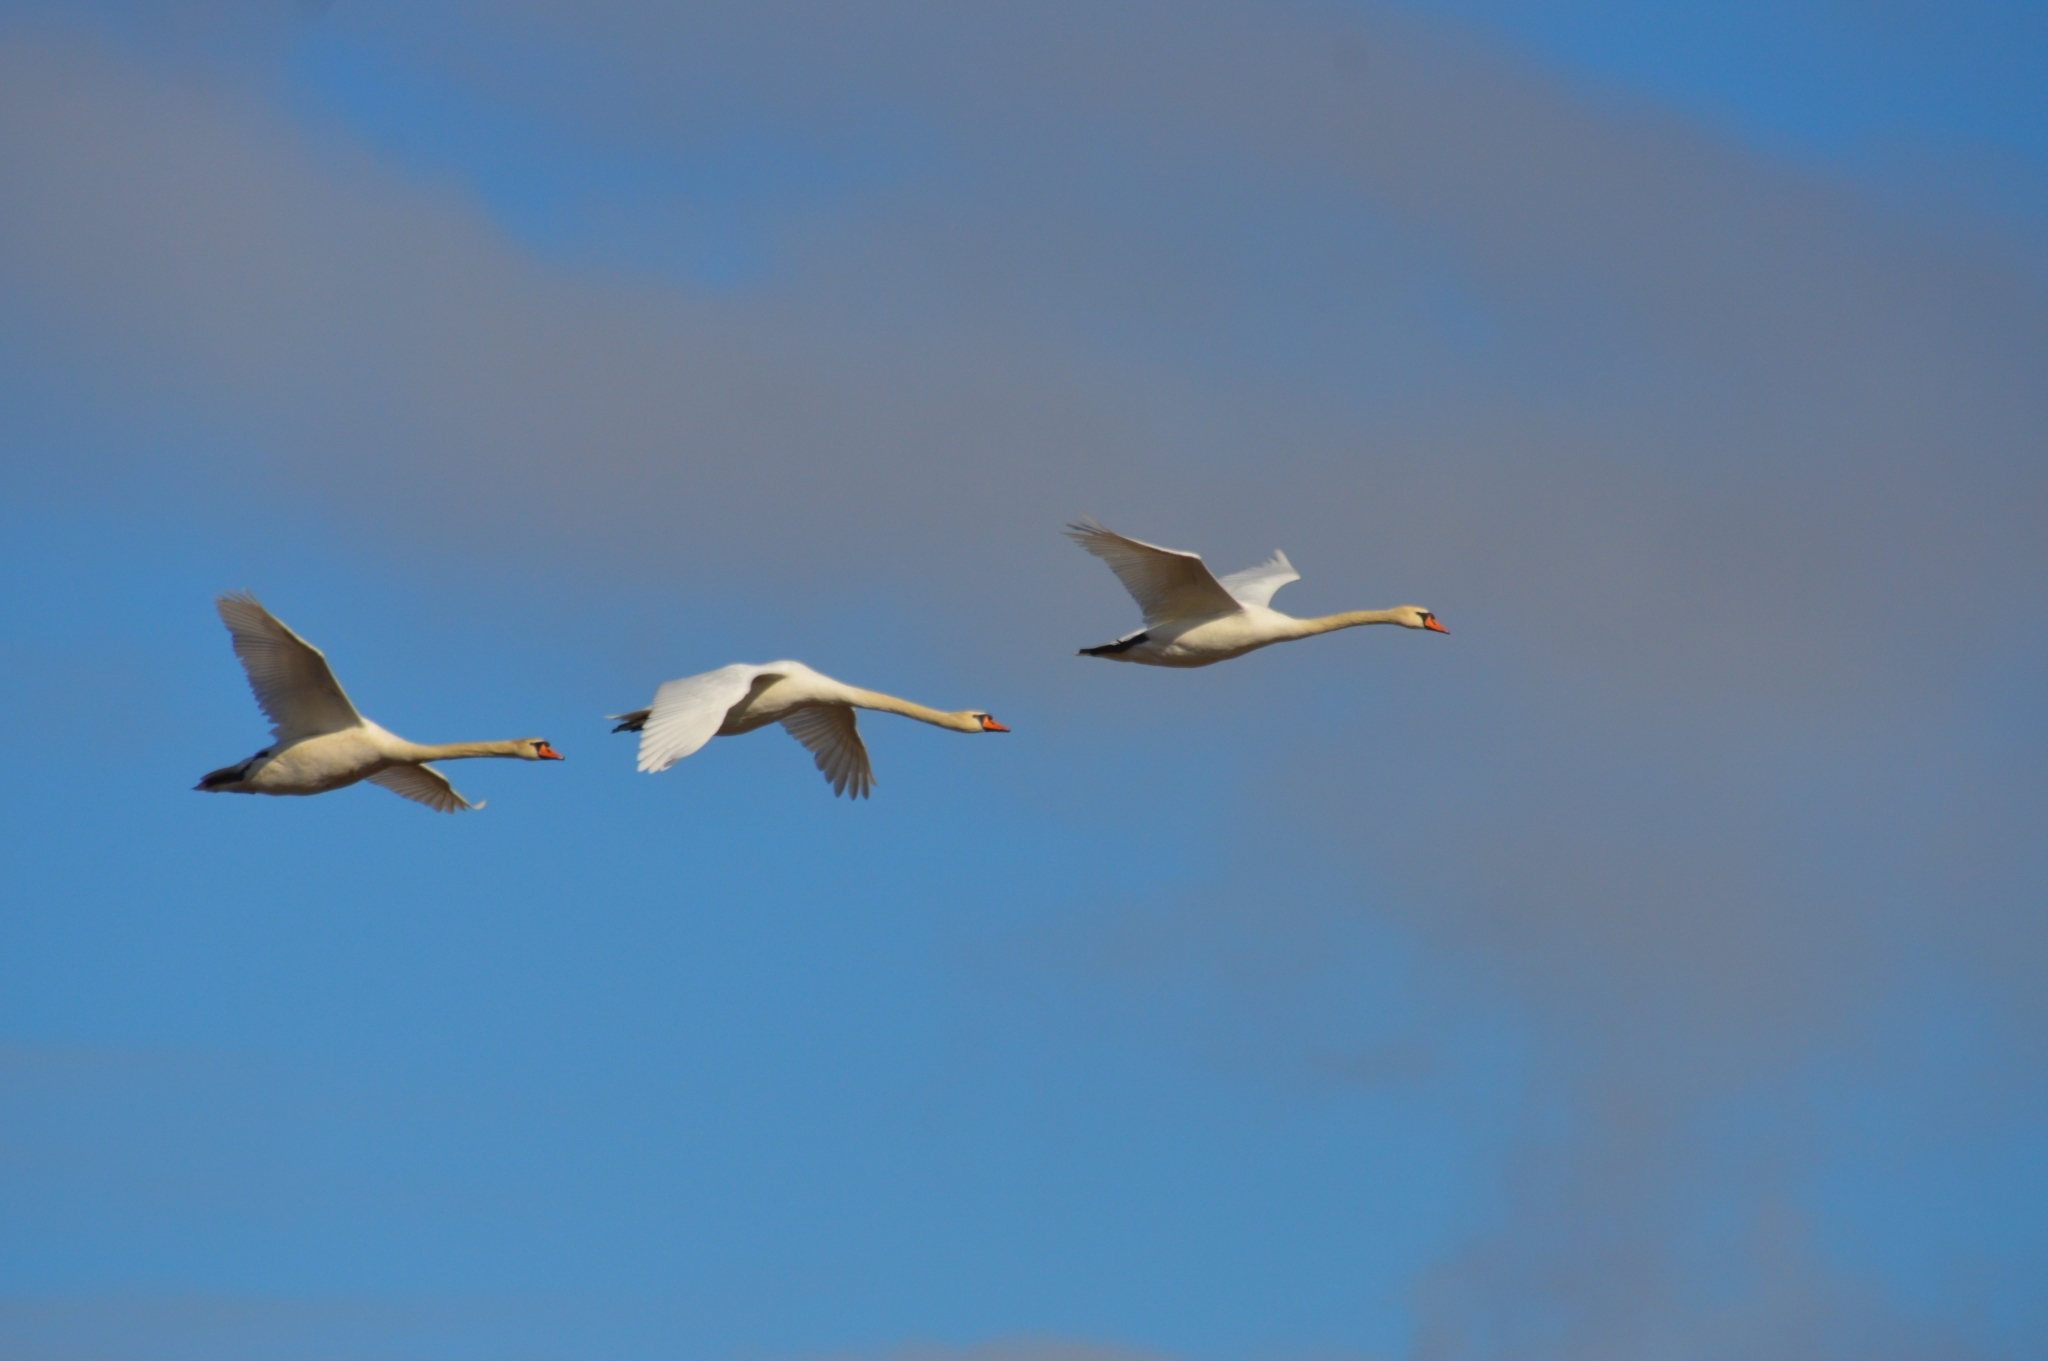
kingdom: Animalia
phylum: Chordata
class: Aves
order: Anseriformes
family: Anatidae
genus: Cygnus
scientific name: Cygnus olor
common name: Mute swan
